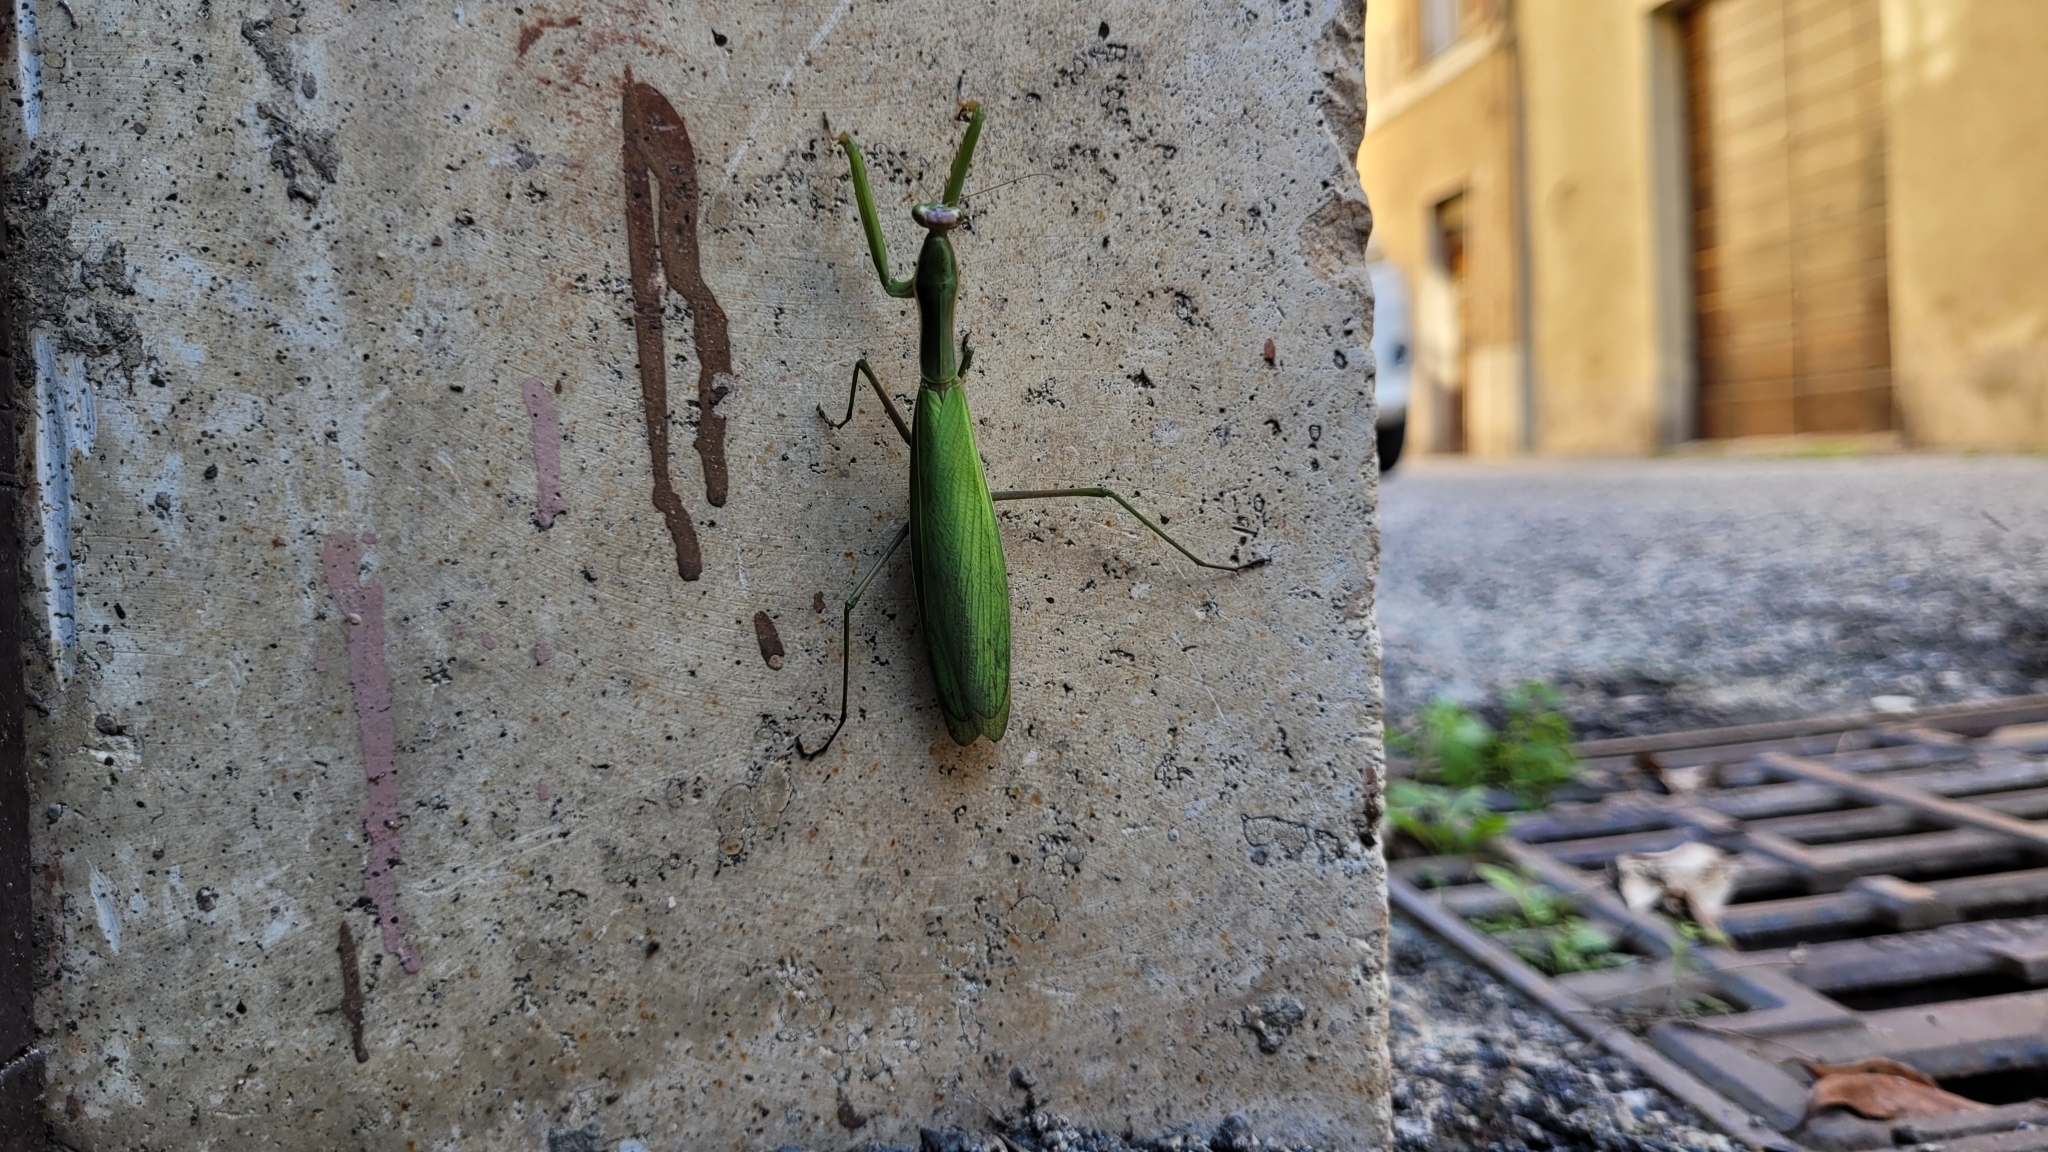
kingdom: Animalia
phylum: Arthropoda
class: Insecta
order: Mantodea
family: Mantidae
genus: Mantis
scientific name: Mantis religiosa
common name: Praying mantis
